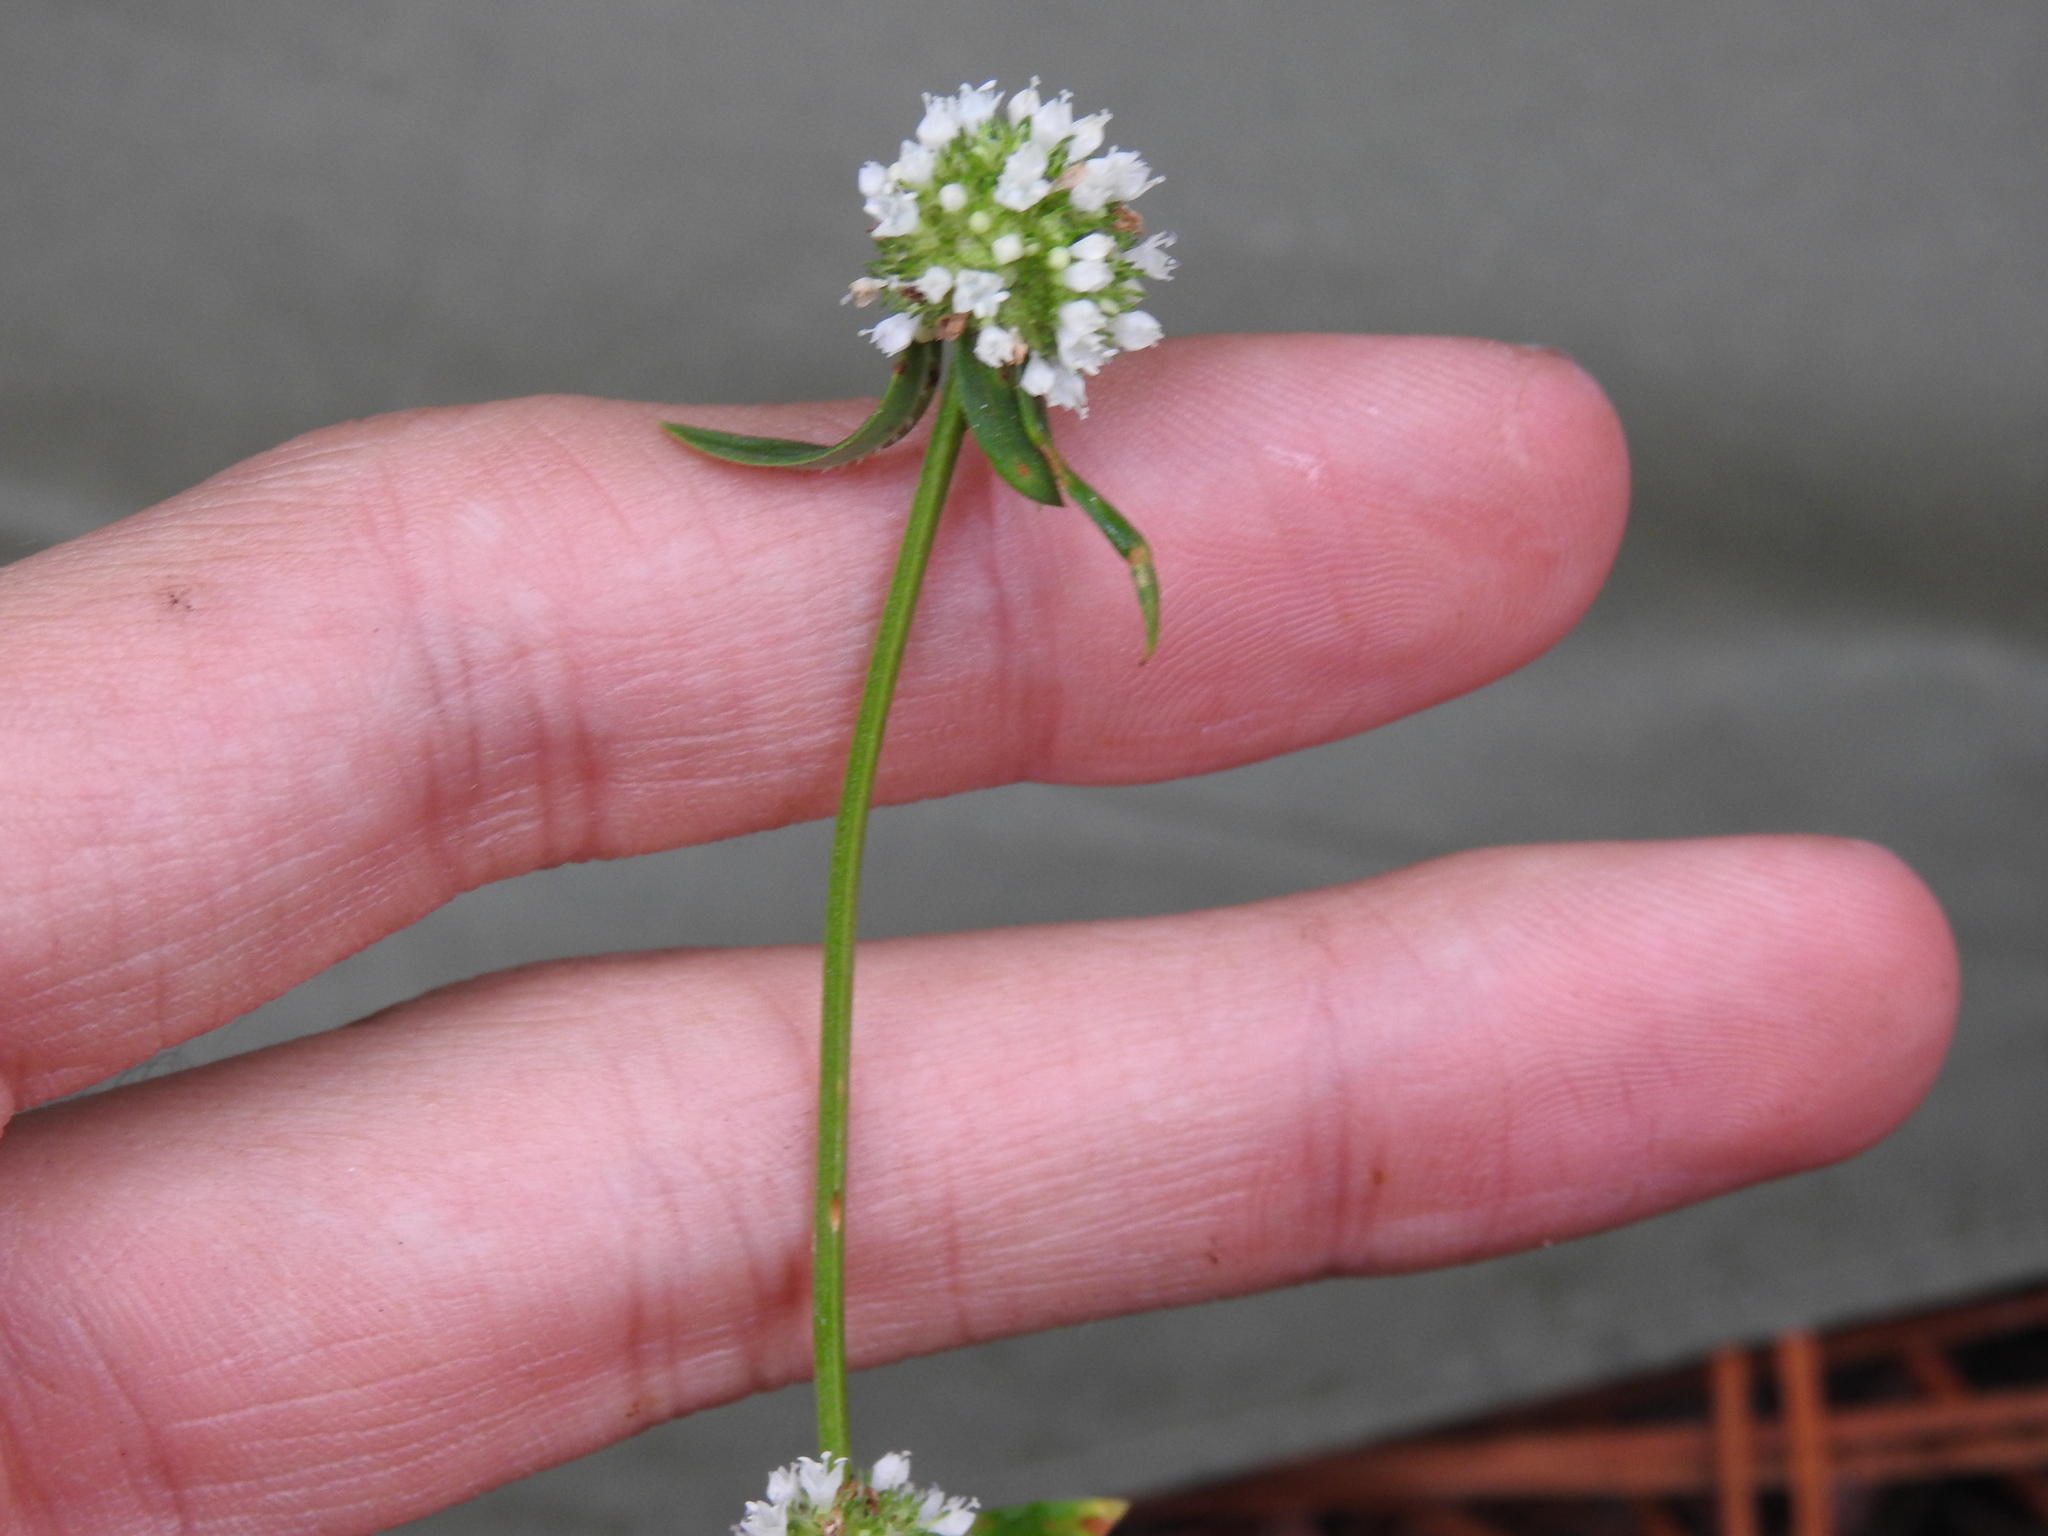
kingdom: Plantae
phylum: Tracheophyta
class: Magnoliopsida
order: Gentianales
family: Rubiaceae
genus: Spermacoce
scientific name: Spermacoce verticillata
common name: Shrubby false buttonweed
